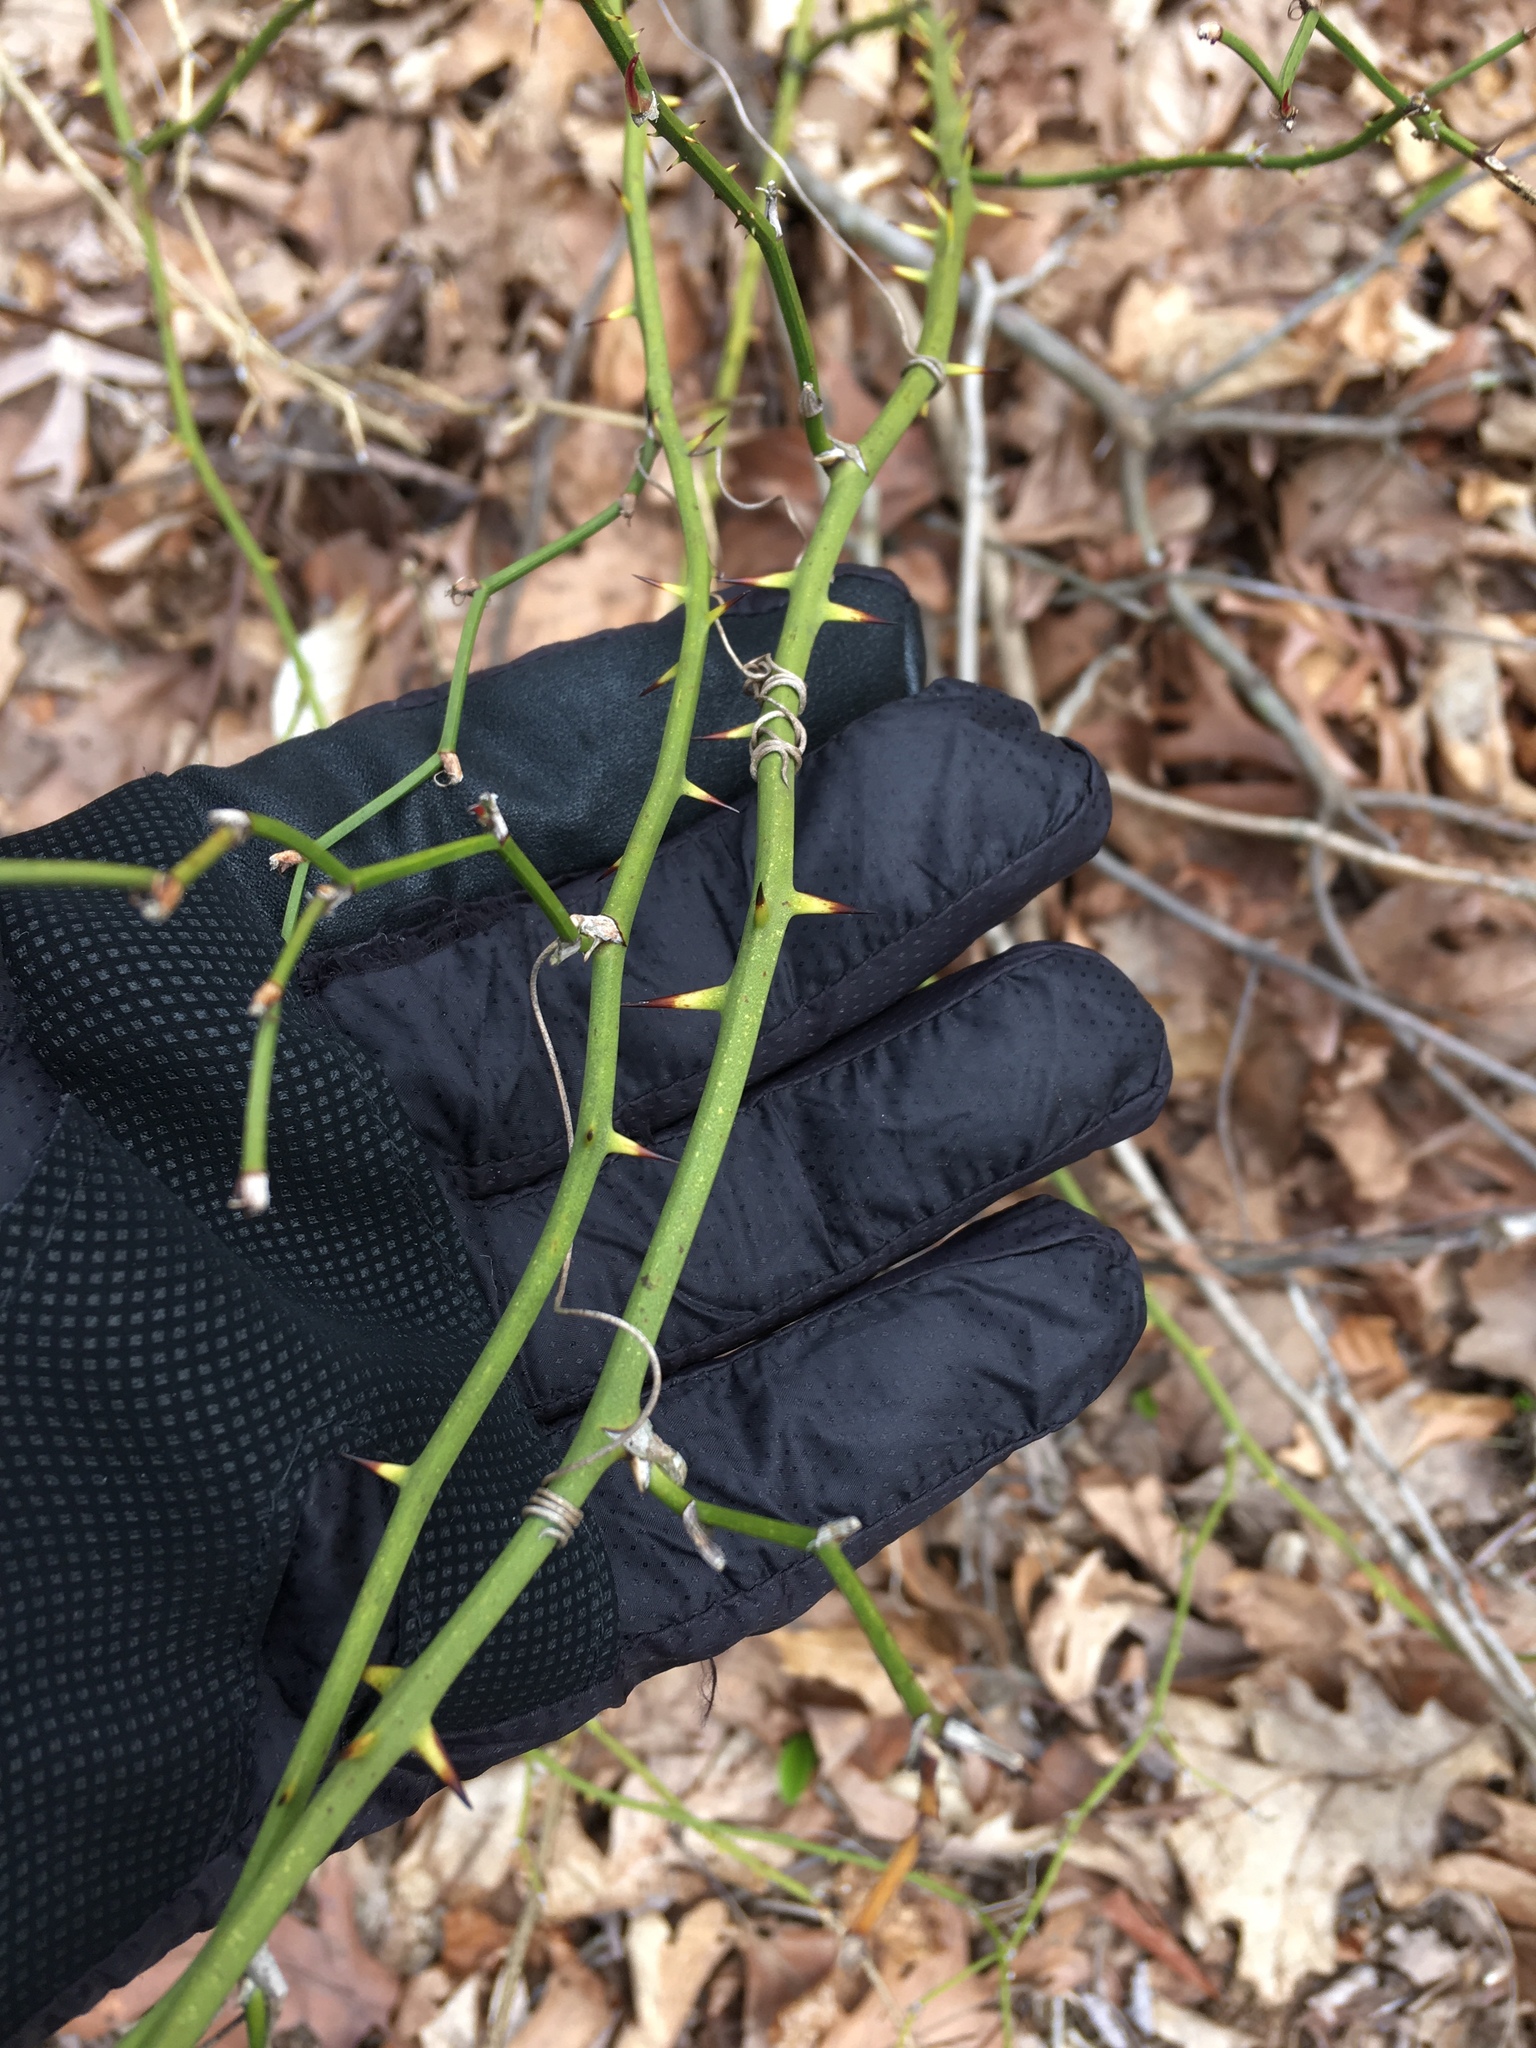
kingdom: Plantae
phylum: Tracheophyta
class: Liliopsida
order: Liliales
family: Smilacaceae
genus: Smilax
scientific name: Smilax rotundifolia
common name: Bullbriar
